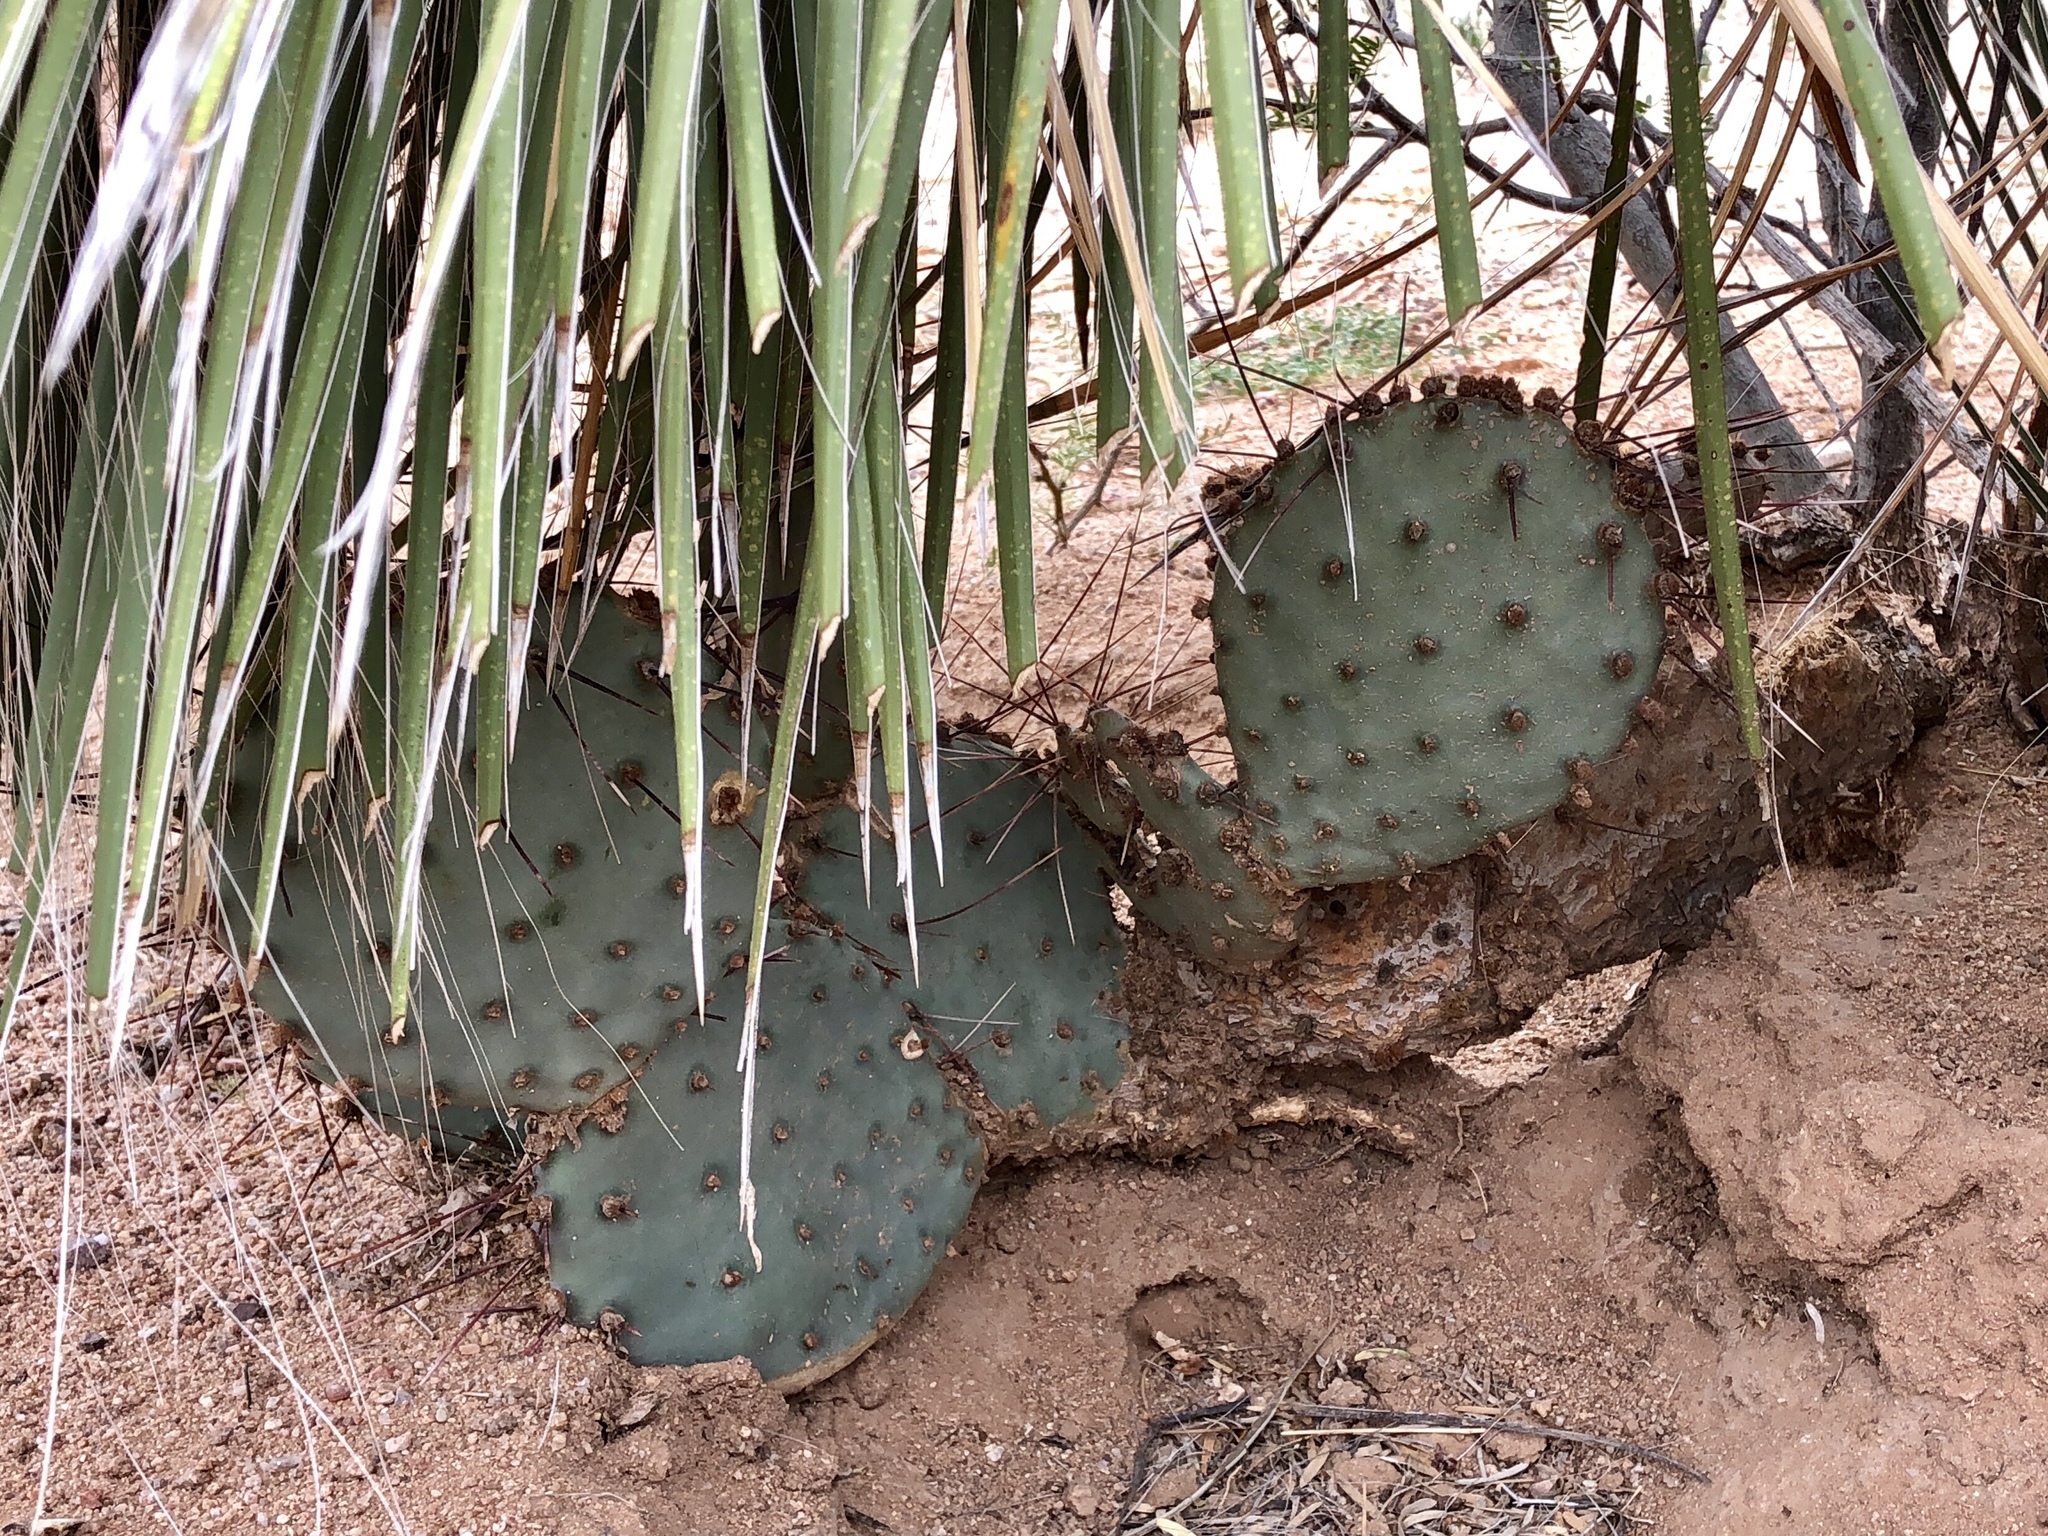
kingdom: Plantae
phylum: Tracheophyta
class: Magnoliopsida
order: Caryophyllales
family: Cactaceae
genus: Opuntia
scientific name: Opuntia macrocentra
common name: Purple prickly-pear
